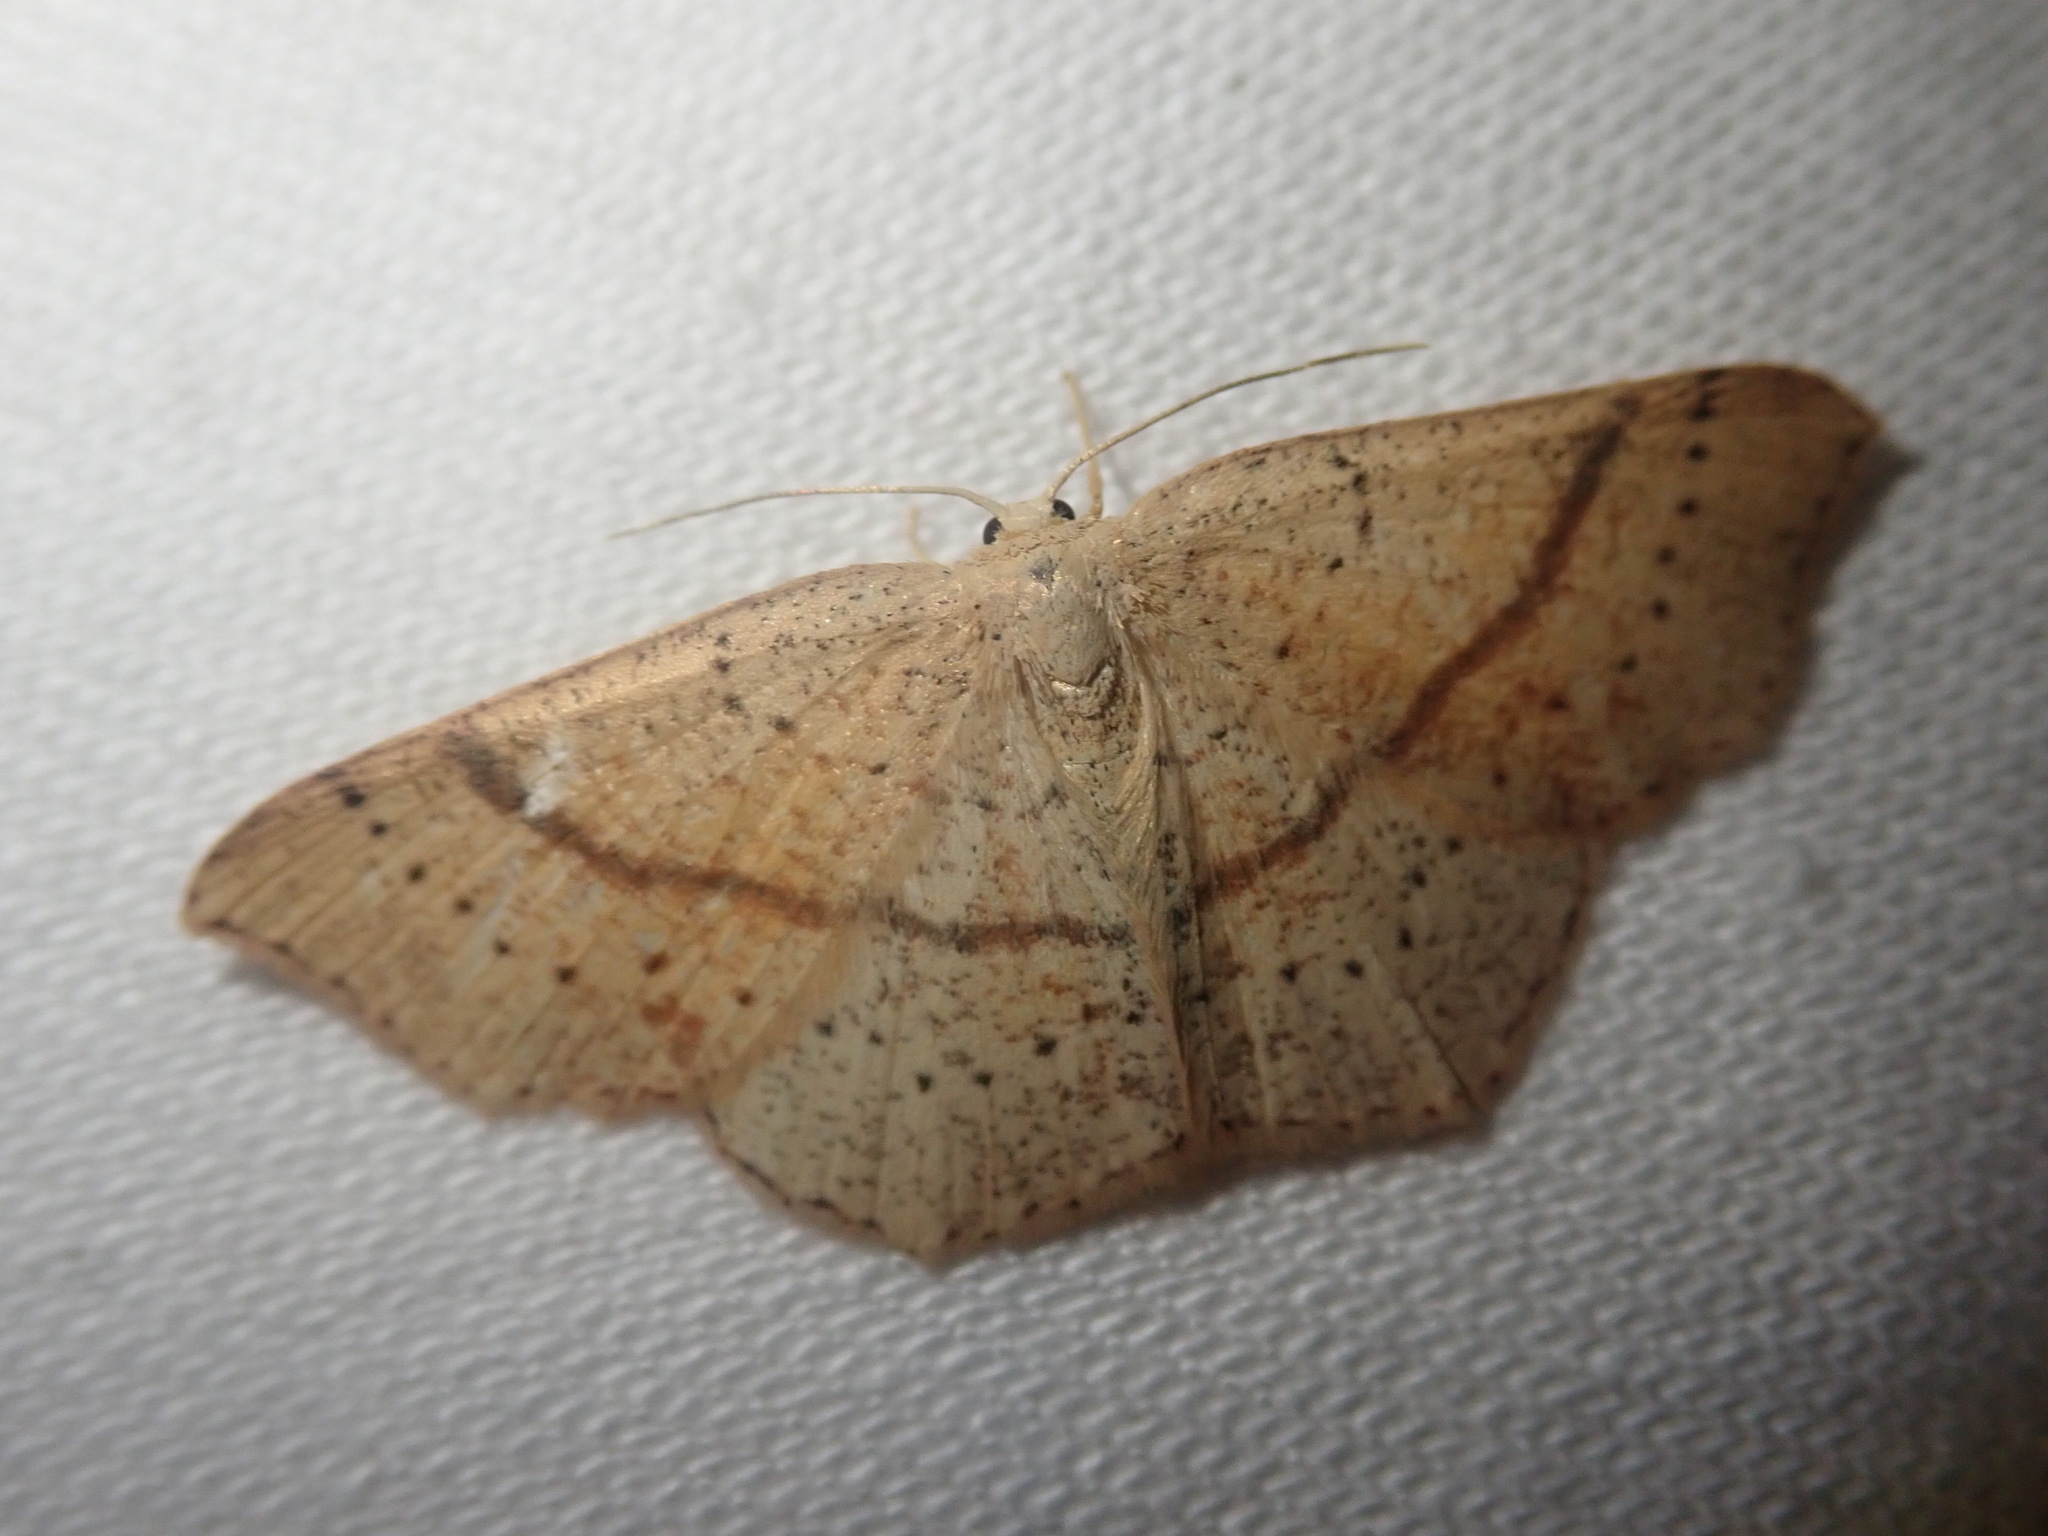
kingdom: Animalia
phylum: Arthropoda
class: Insecta
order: Lepidoptera
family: Geometridae
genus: Cyclophora
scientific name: Cyclophora punctaria
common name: Maiden's blush
